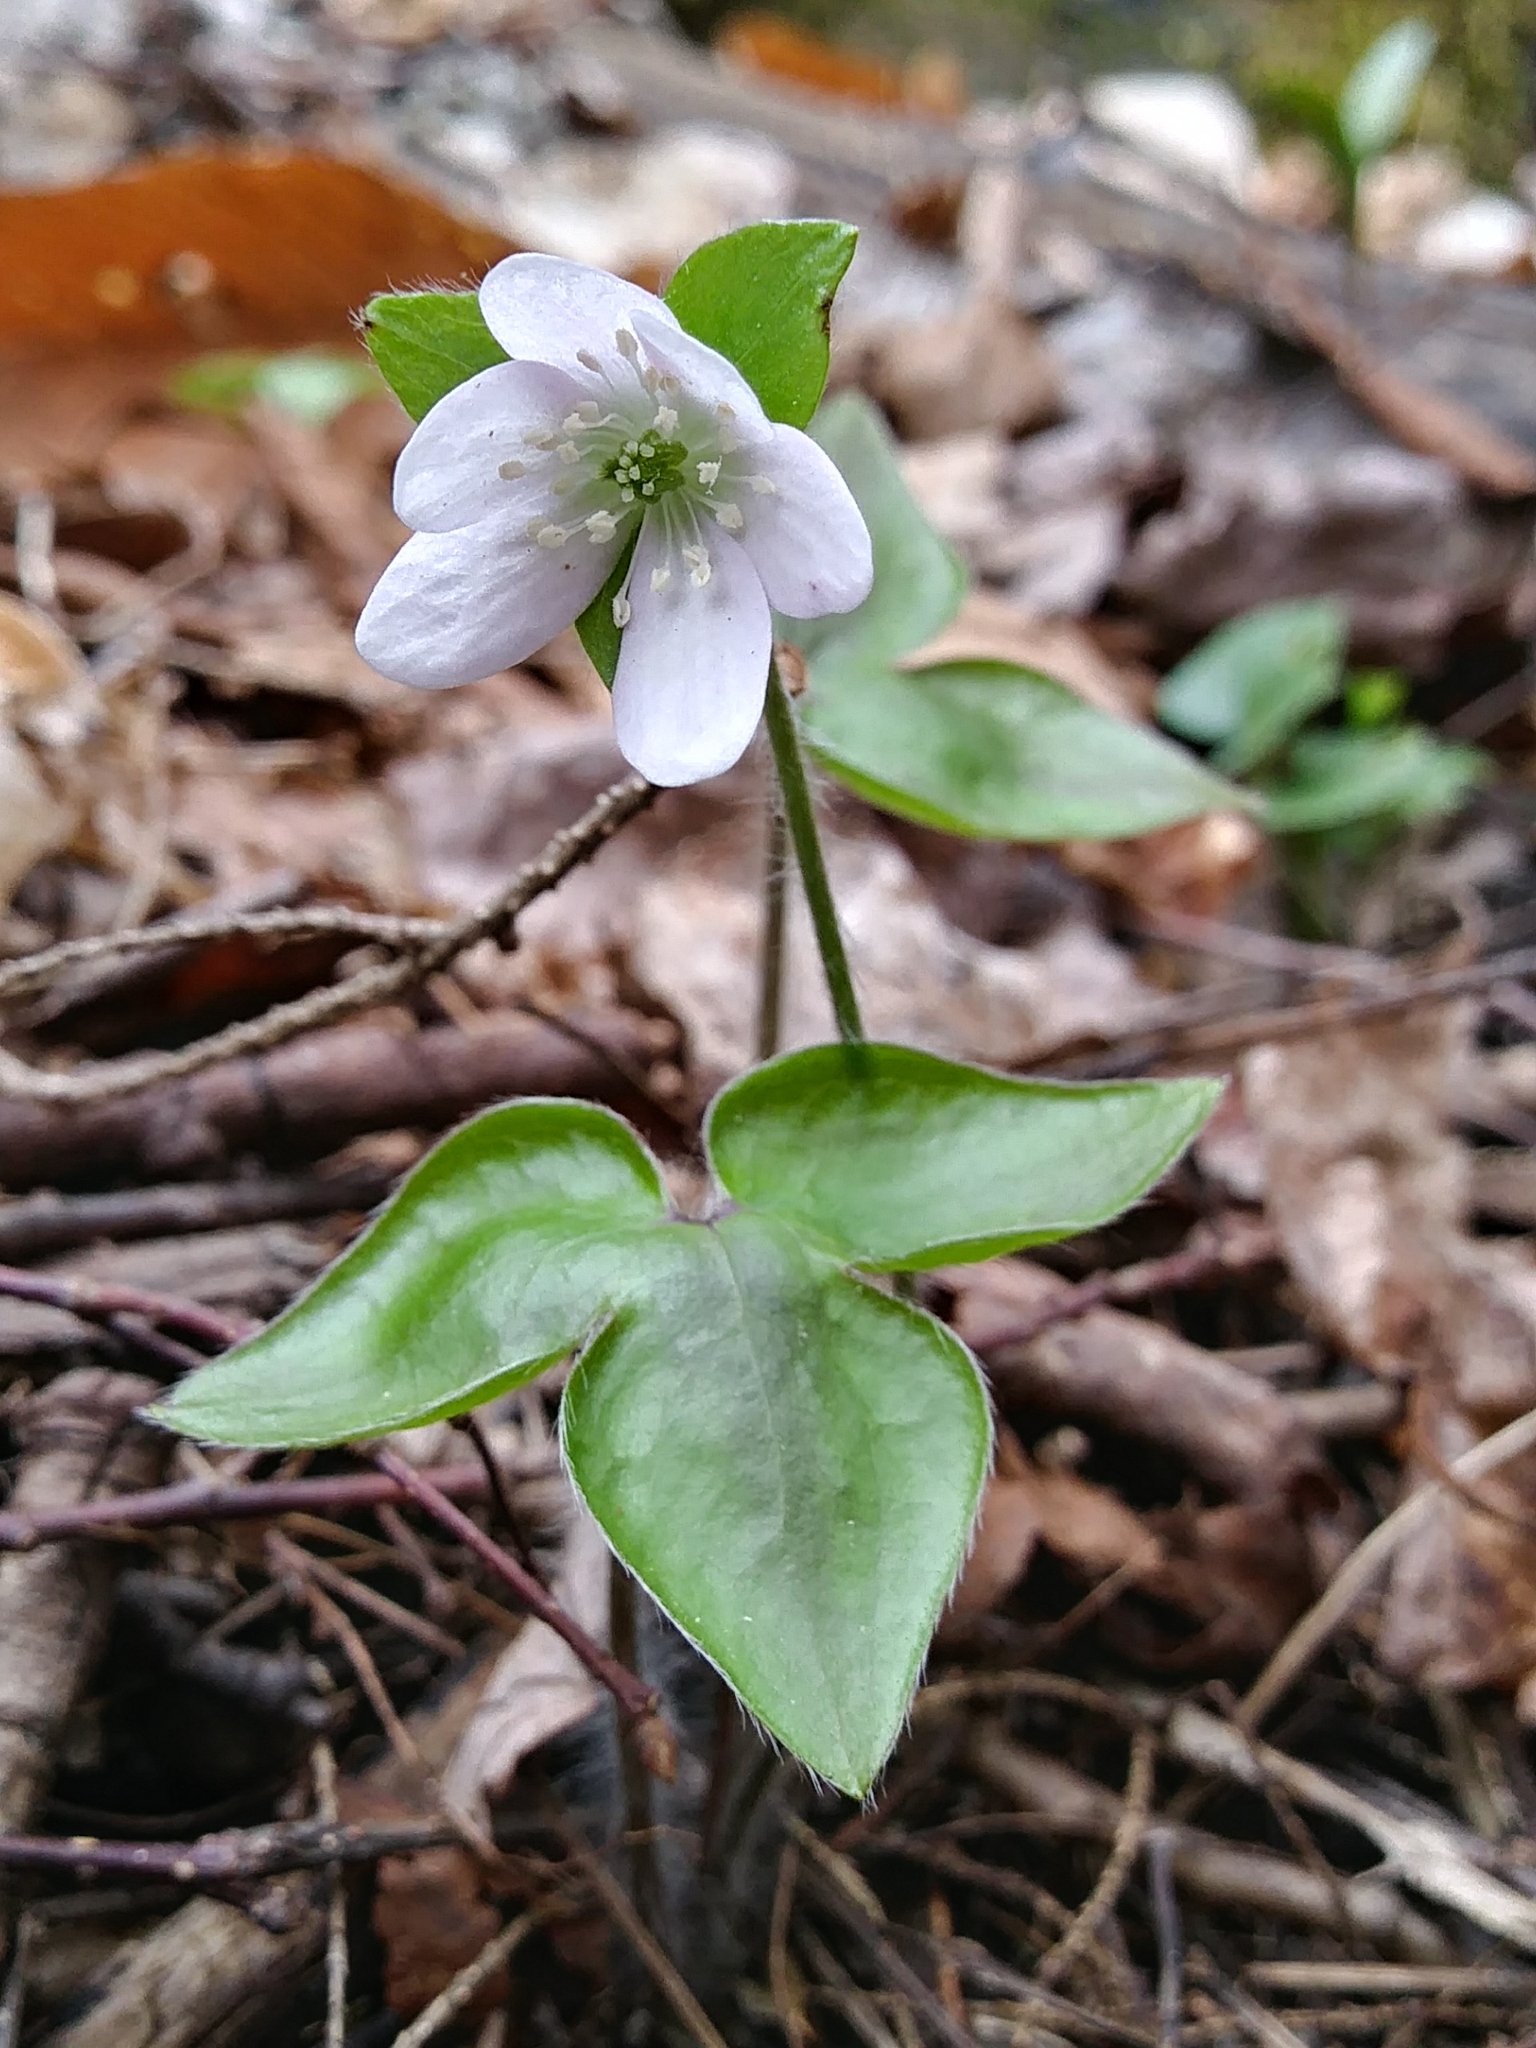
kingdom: Plantae
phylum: Tracheophyta
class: Magnoliopsida
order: Ranunculales
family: Ranunculaceae
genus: Hepatica
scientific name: Hepatica acutiloba
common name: Sharp-lobed hepatica
